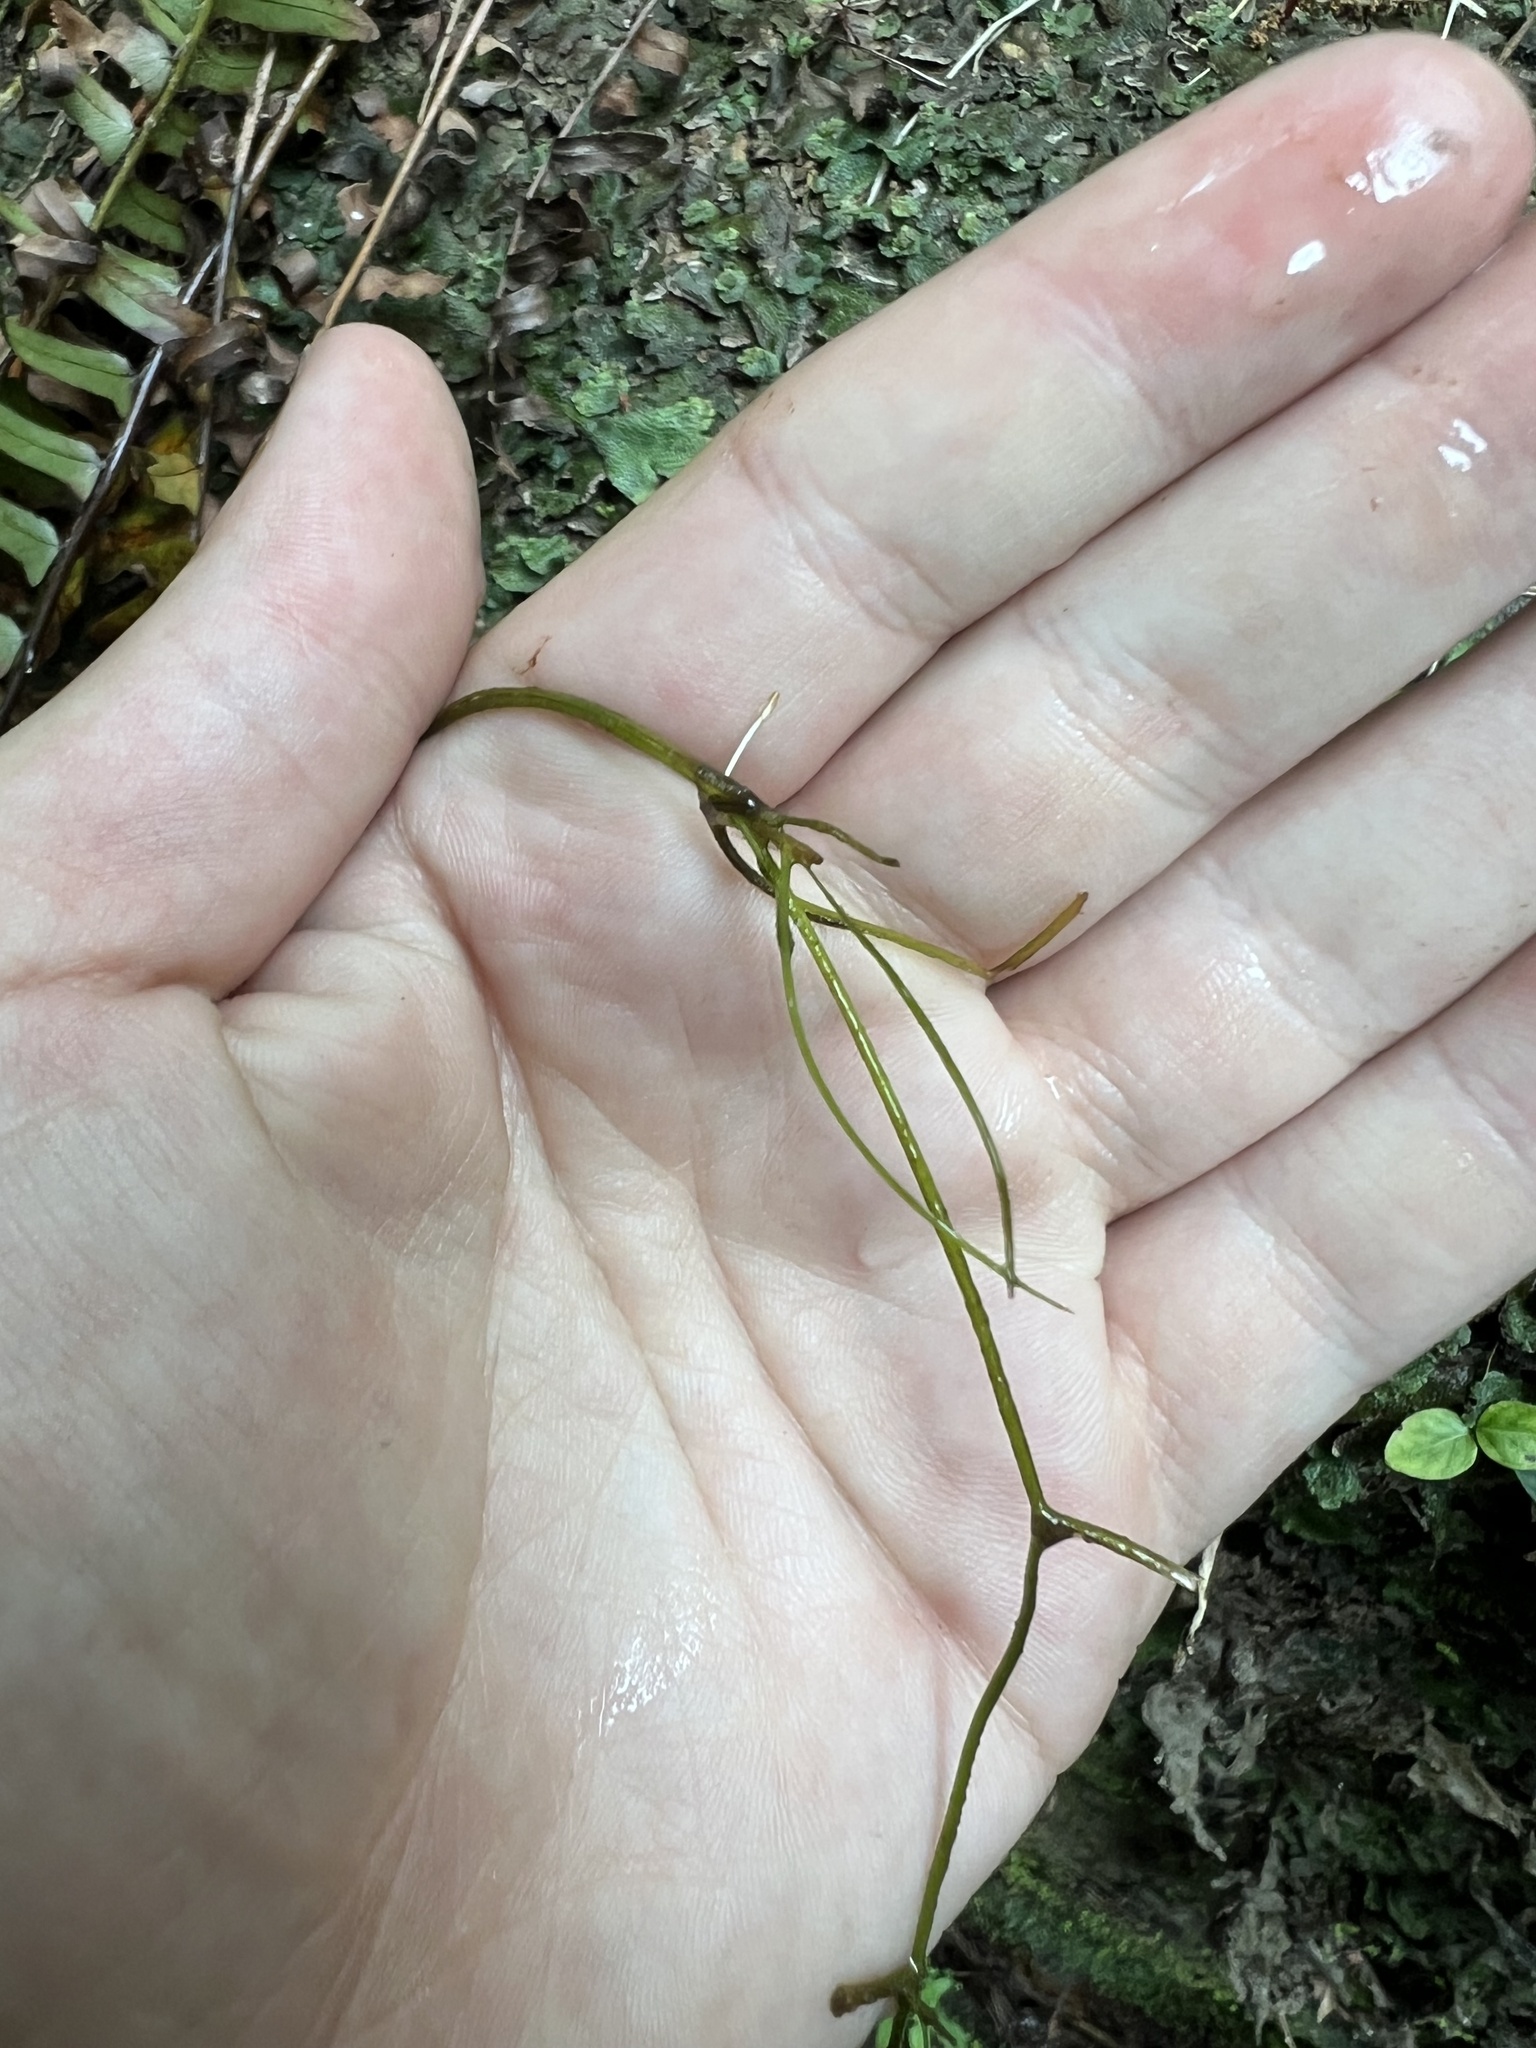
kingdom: Plantae
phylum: Tracheophyta
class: Liliopsida
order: Alismatales
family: Potamogetonaceae
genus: Stuckenia
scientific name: Stuckenia pectinata
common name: Sago pondweed
